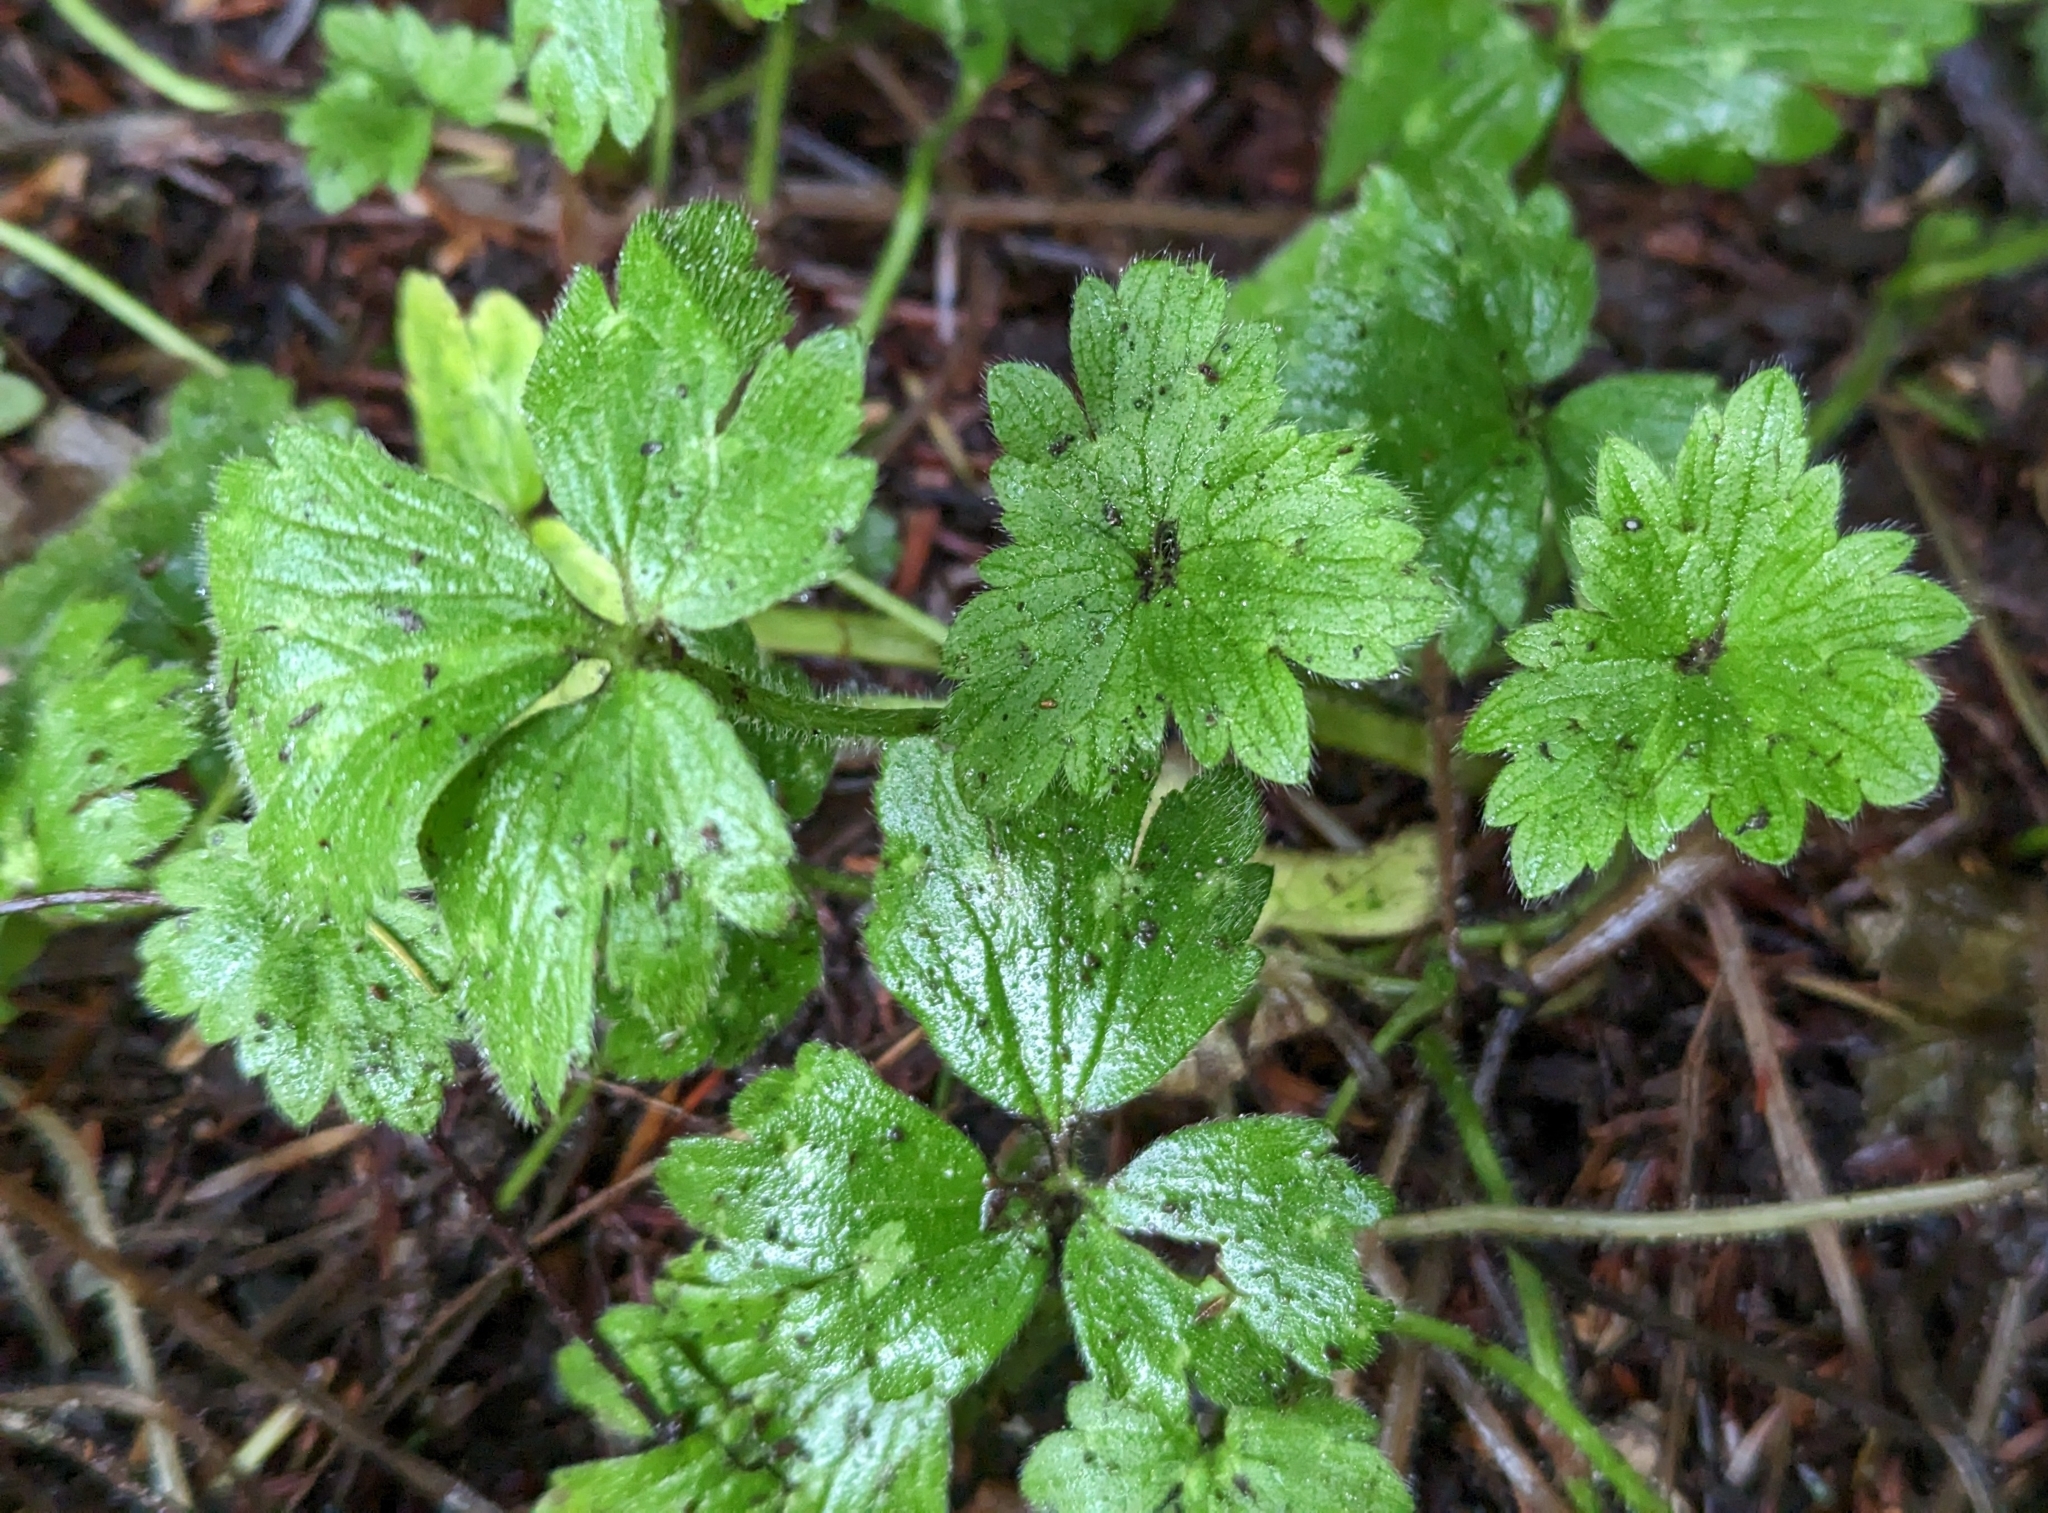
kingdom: Plantae
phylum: Tracheophyta
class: Magnoliopsida
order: Ranunculales
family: Ranunculaceae
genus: Ranunculus
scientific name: Ranunculus repens
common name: Creeping buttercup
